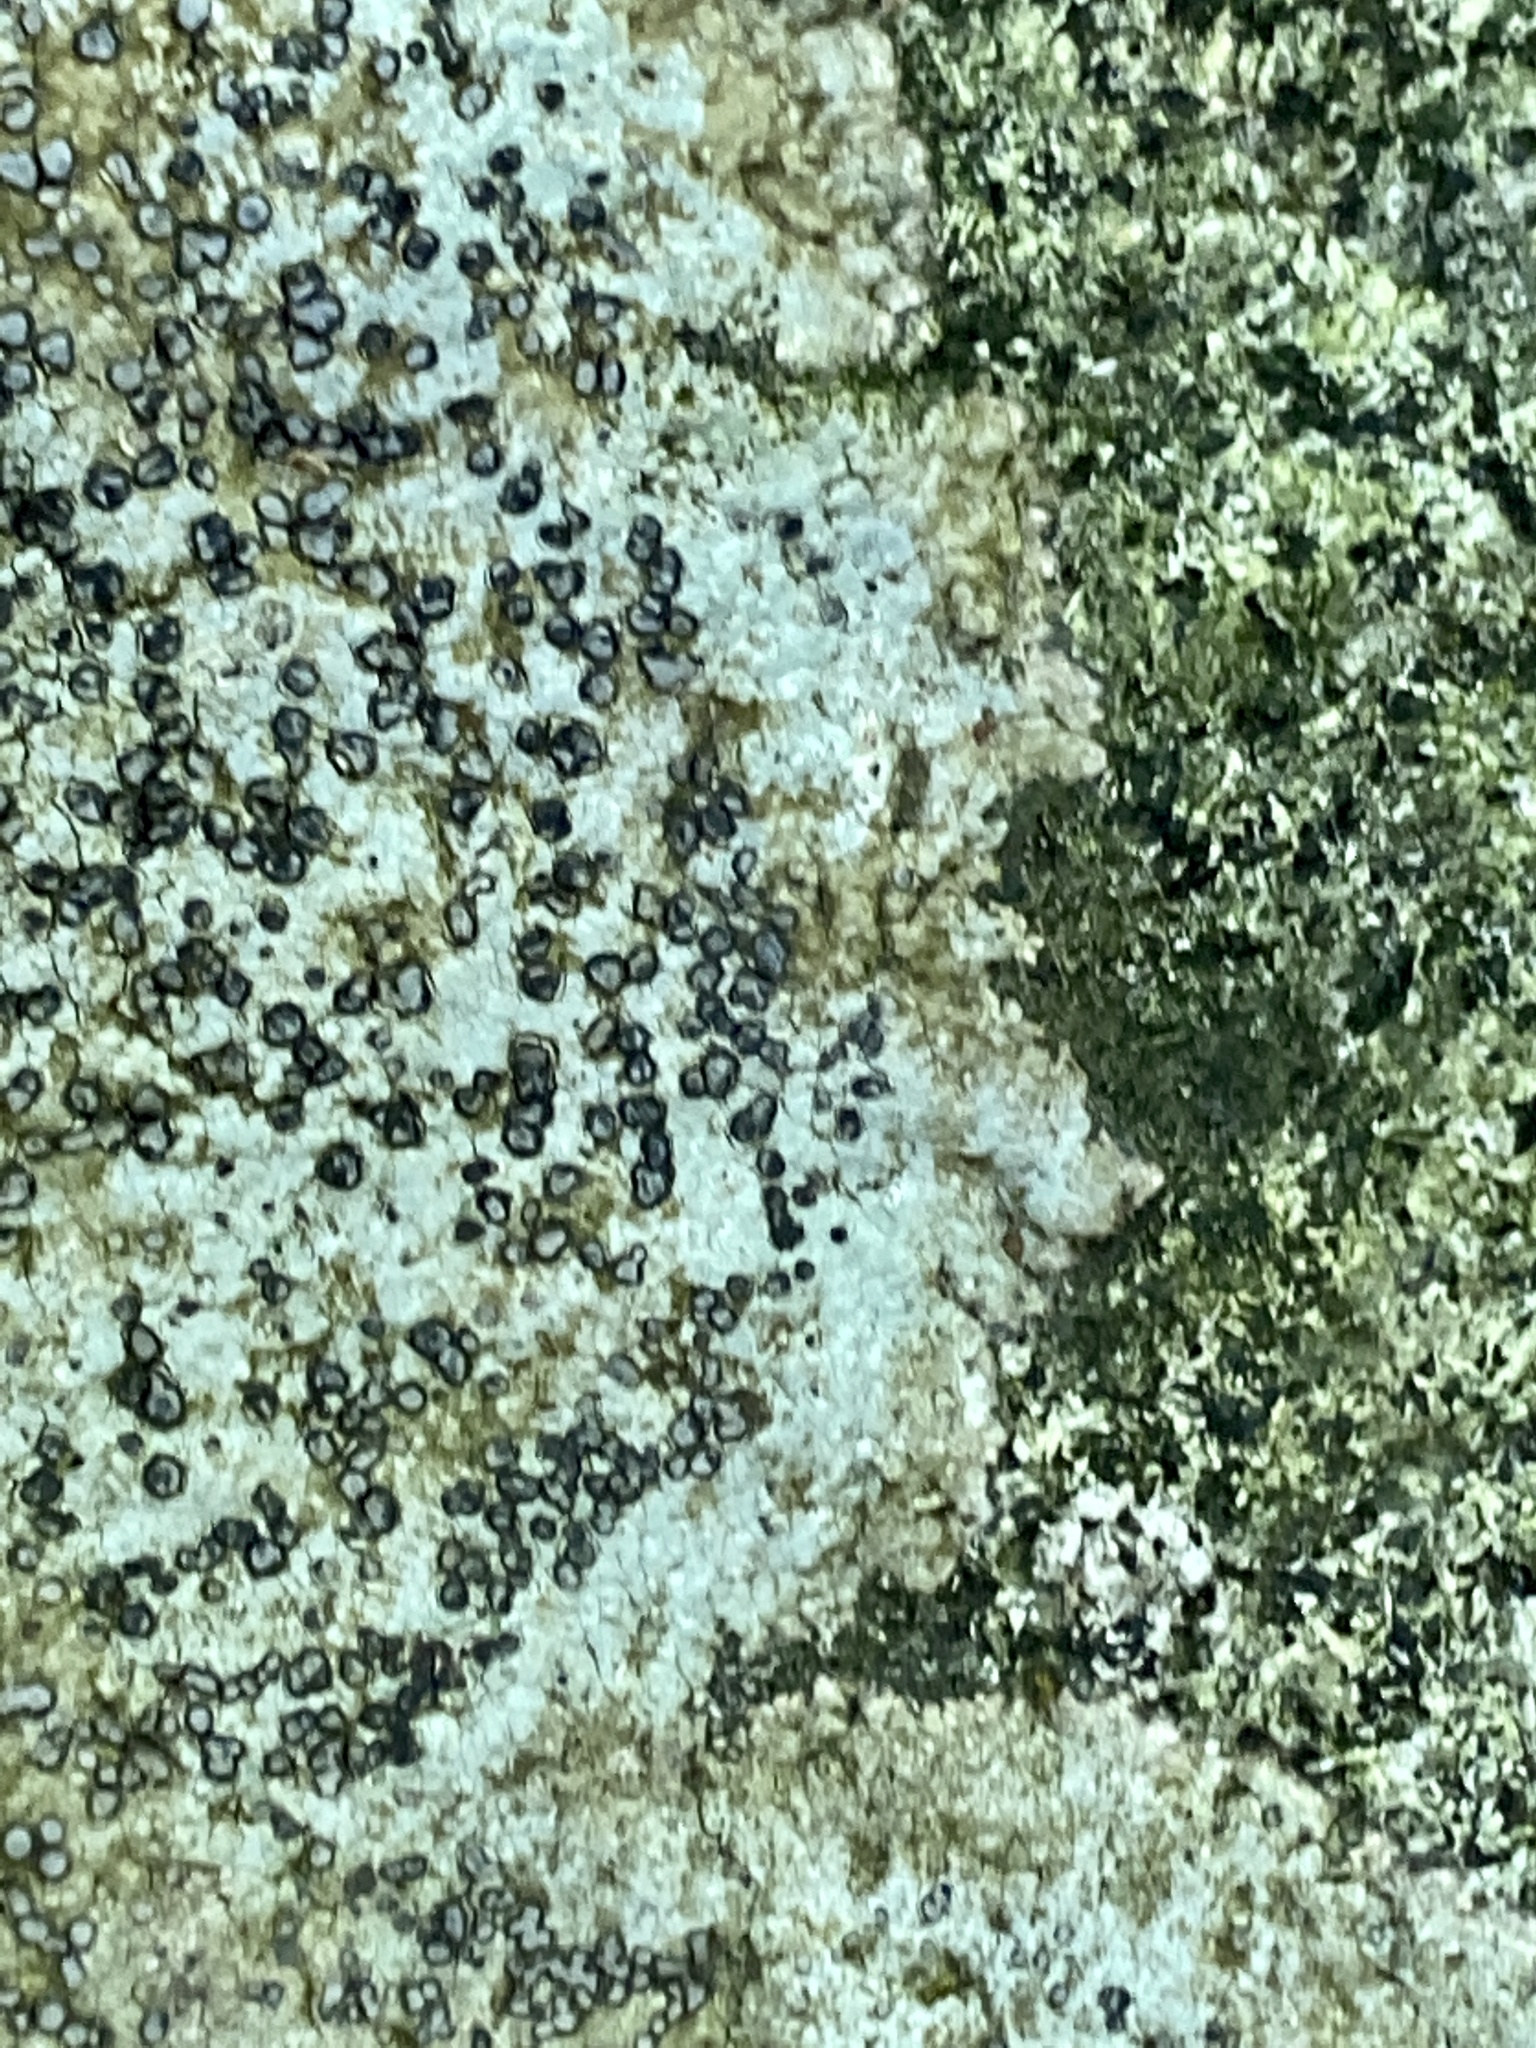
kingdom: Fungi
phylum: Ascomycota
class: Lecanoromycetes
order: Lecideales
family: Lecideaceae
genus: Porpidia
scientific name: Porpidia albocaerulescens
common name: Smokey-eyed boulder lichen
